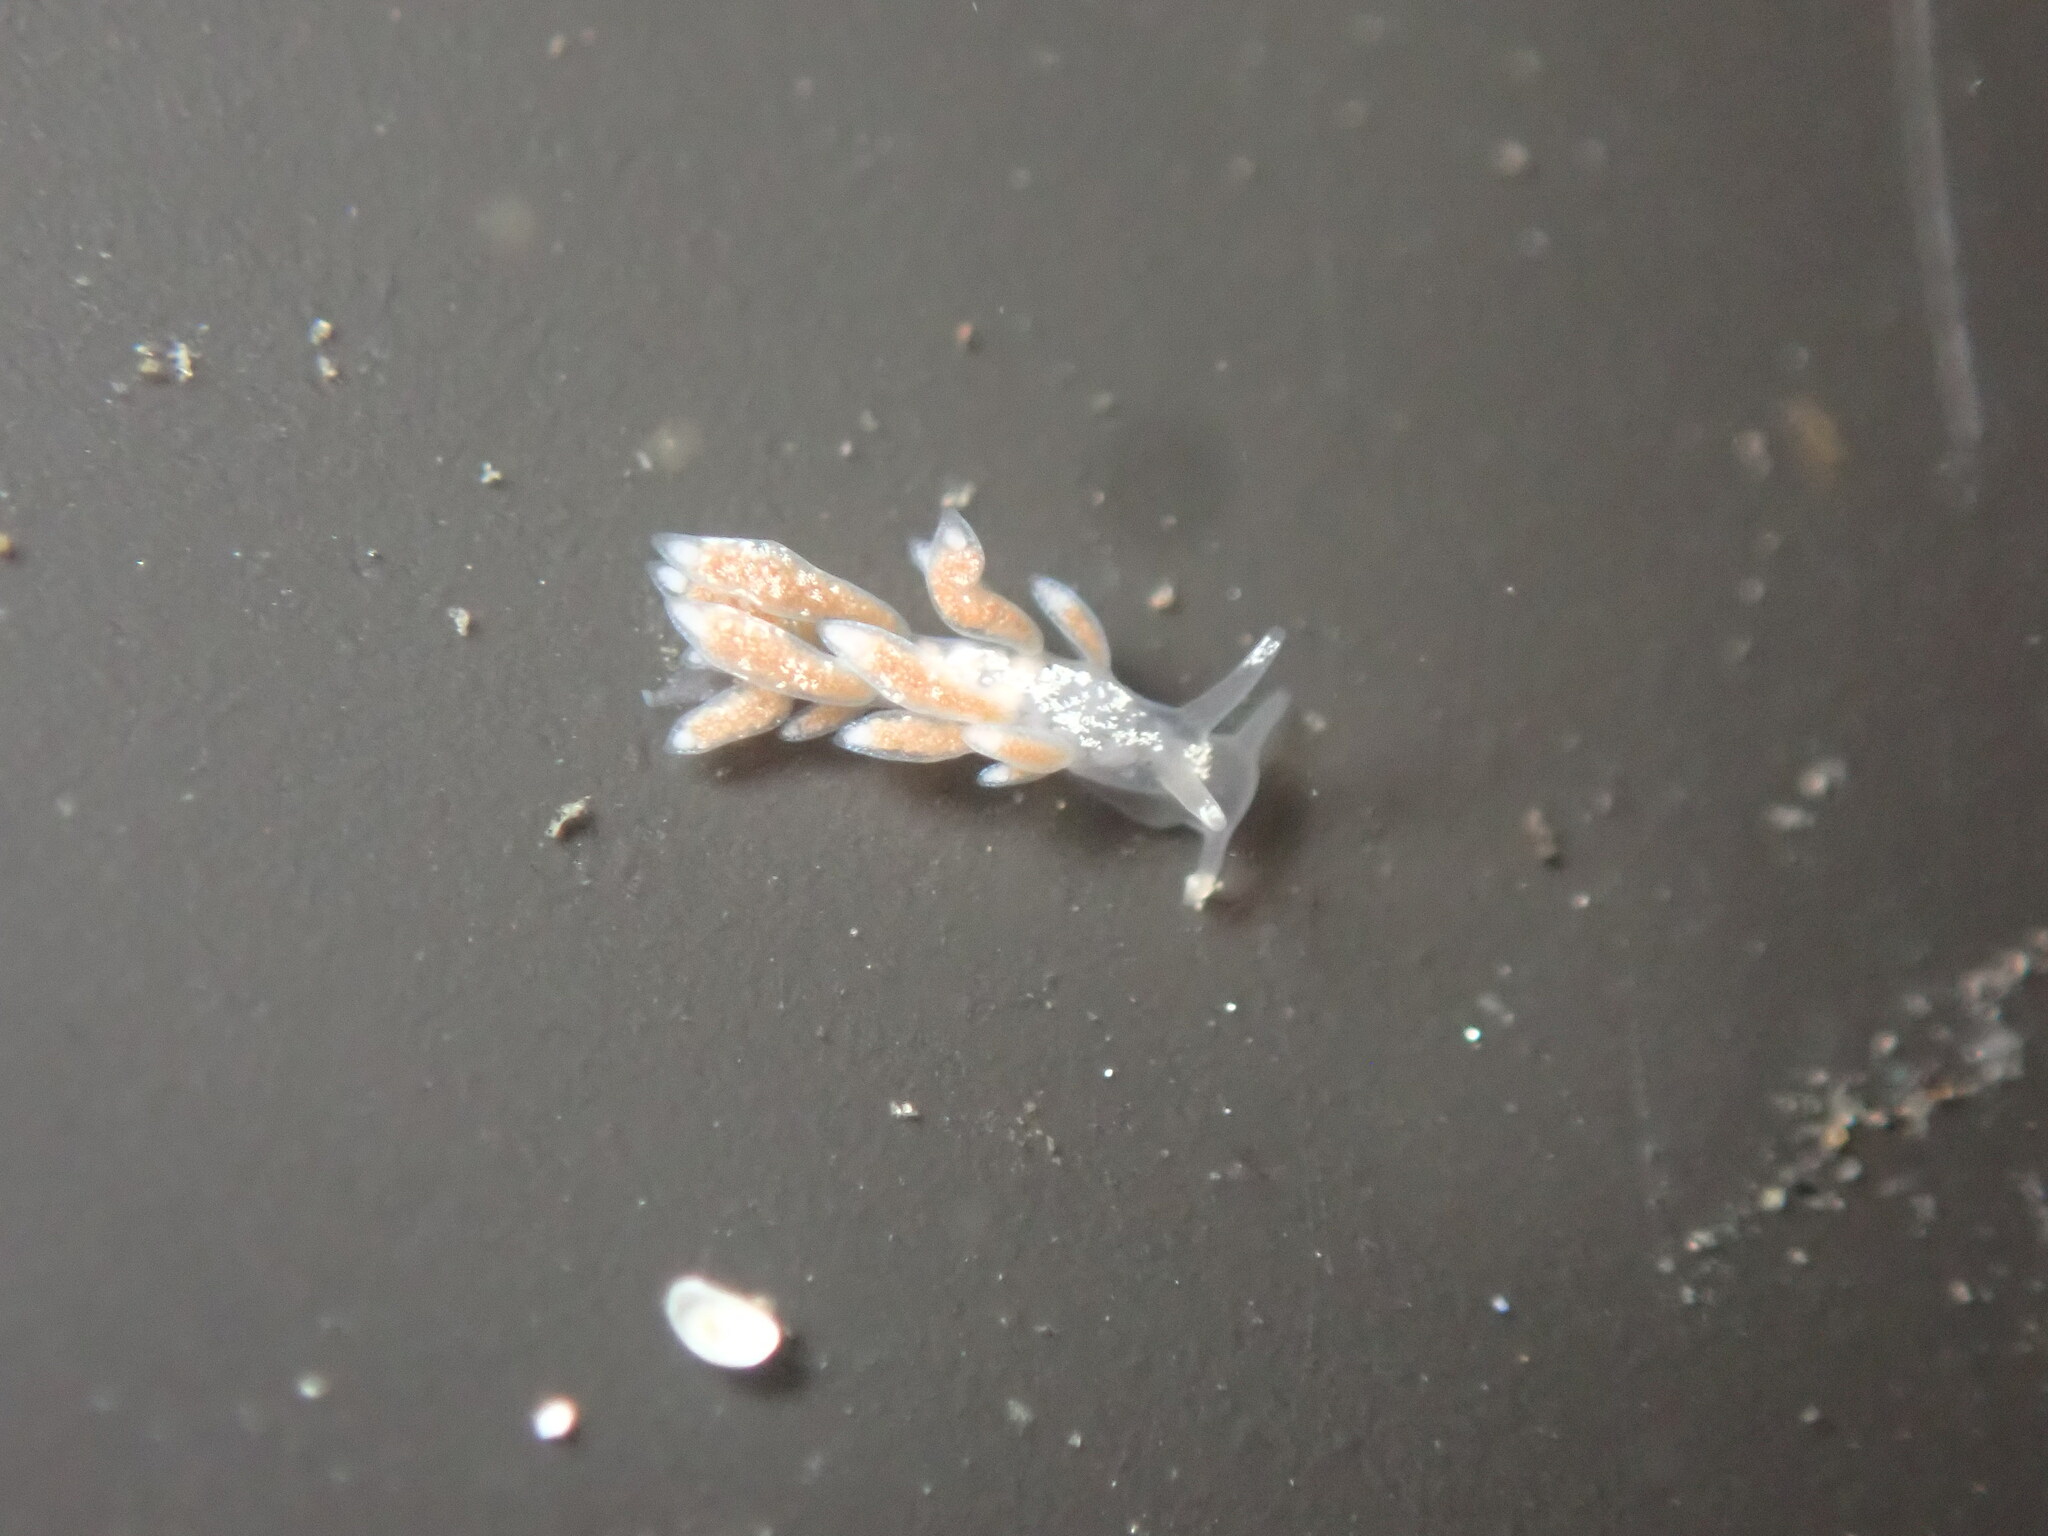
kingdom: Animalia
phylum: Mollusca
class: Gastropoda
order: Nudibranchia
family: Trinchesiidae
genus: Trinchesia
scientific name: Trinchesia albocrusta
